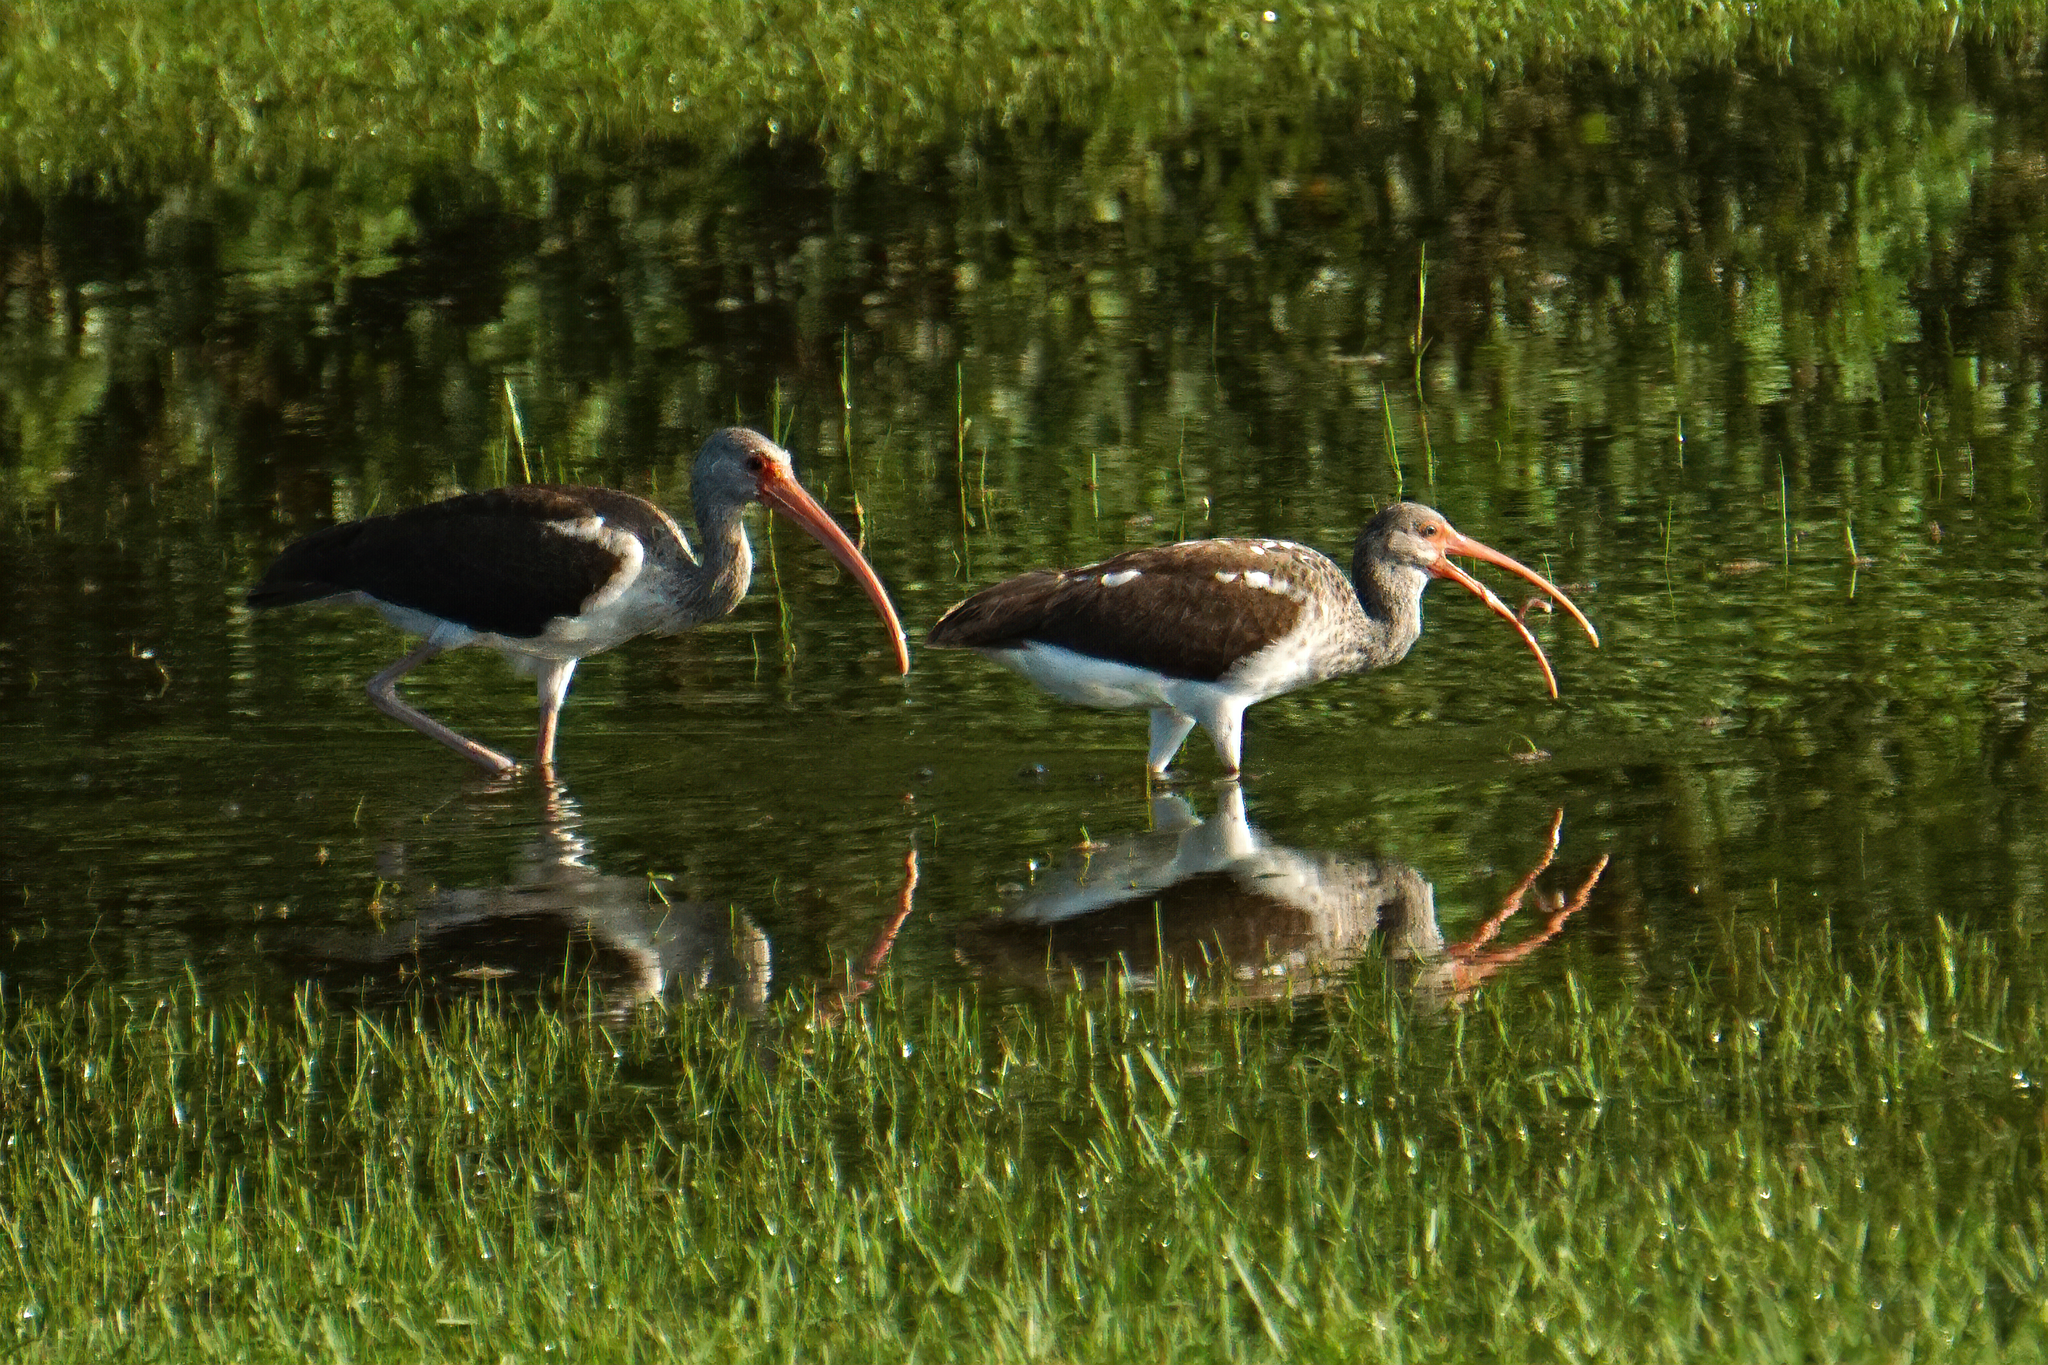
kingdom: Animalia
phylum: Chordata
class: Aves
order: Pelecaniformes
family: Threskiornithidae
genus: Eudocimus
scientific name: Eudocimus albus
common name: White ibis
